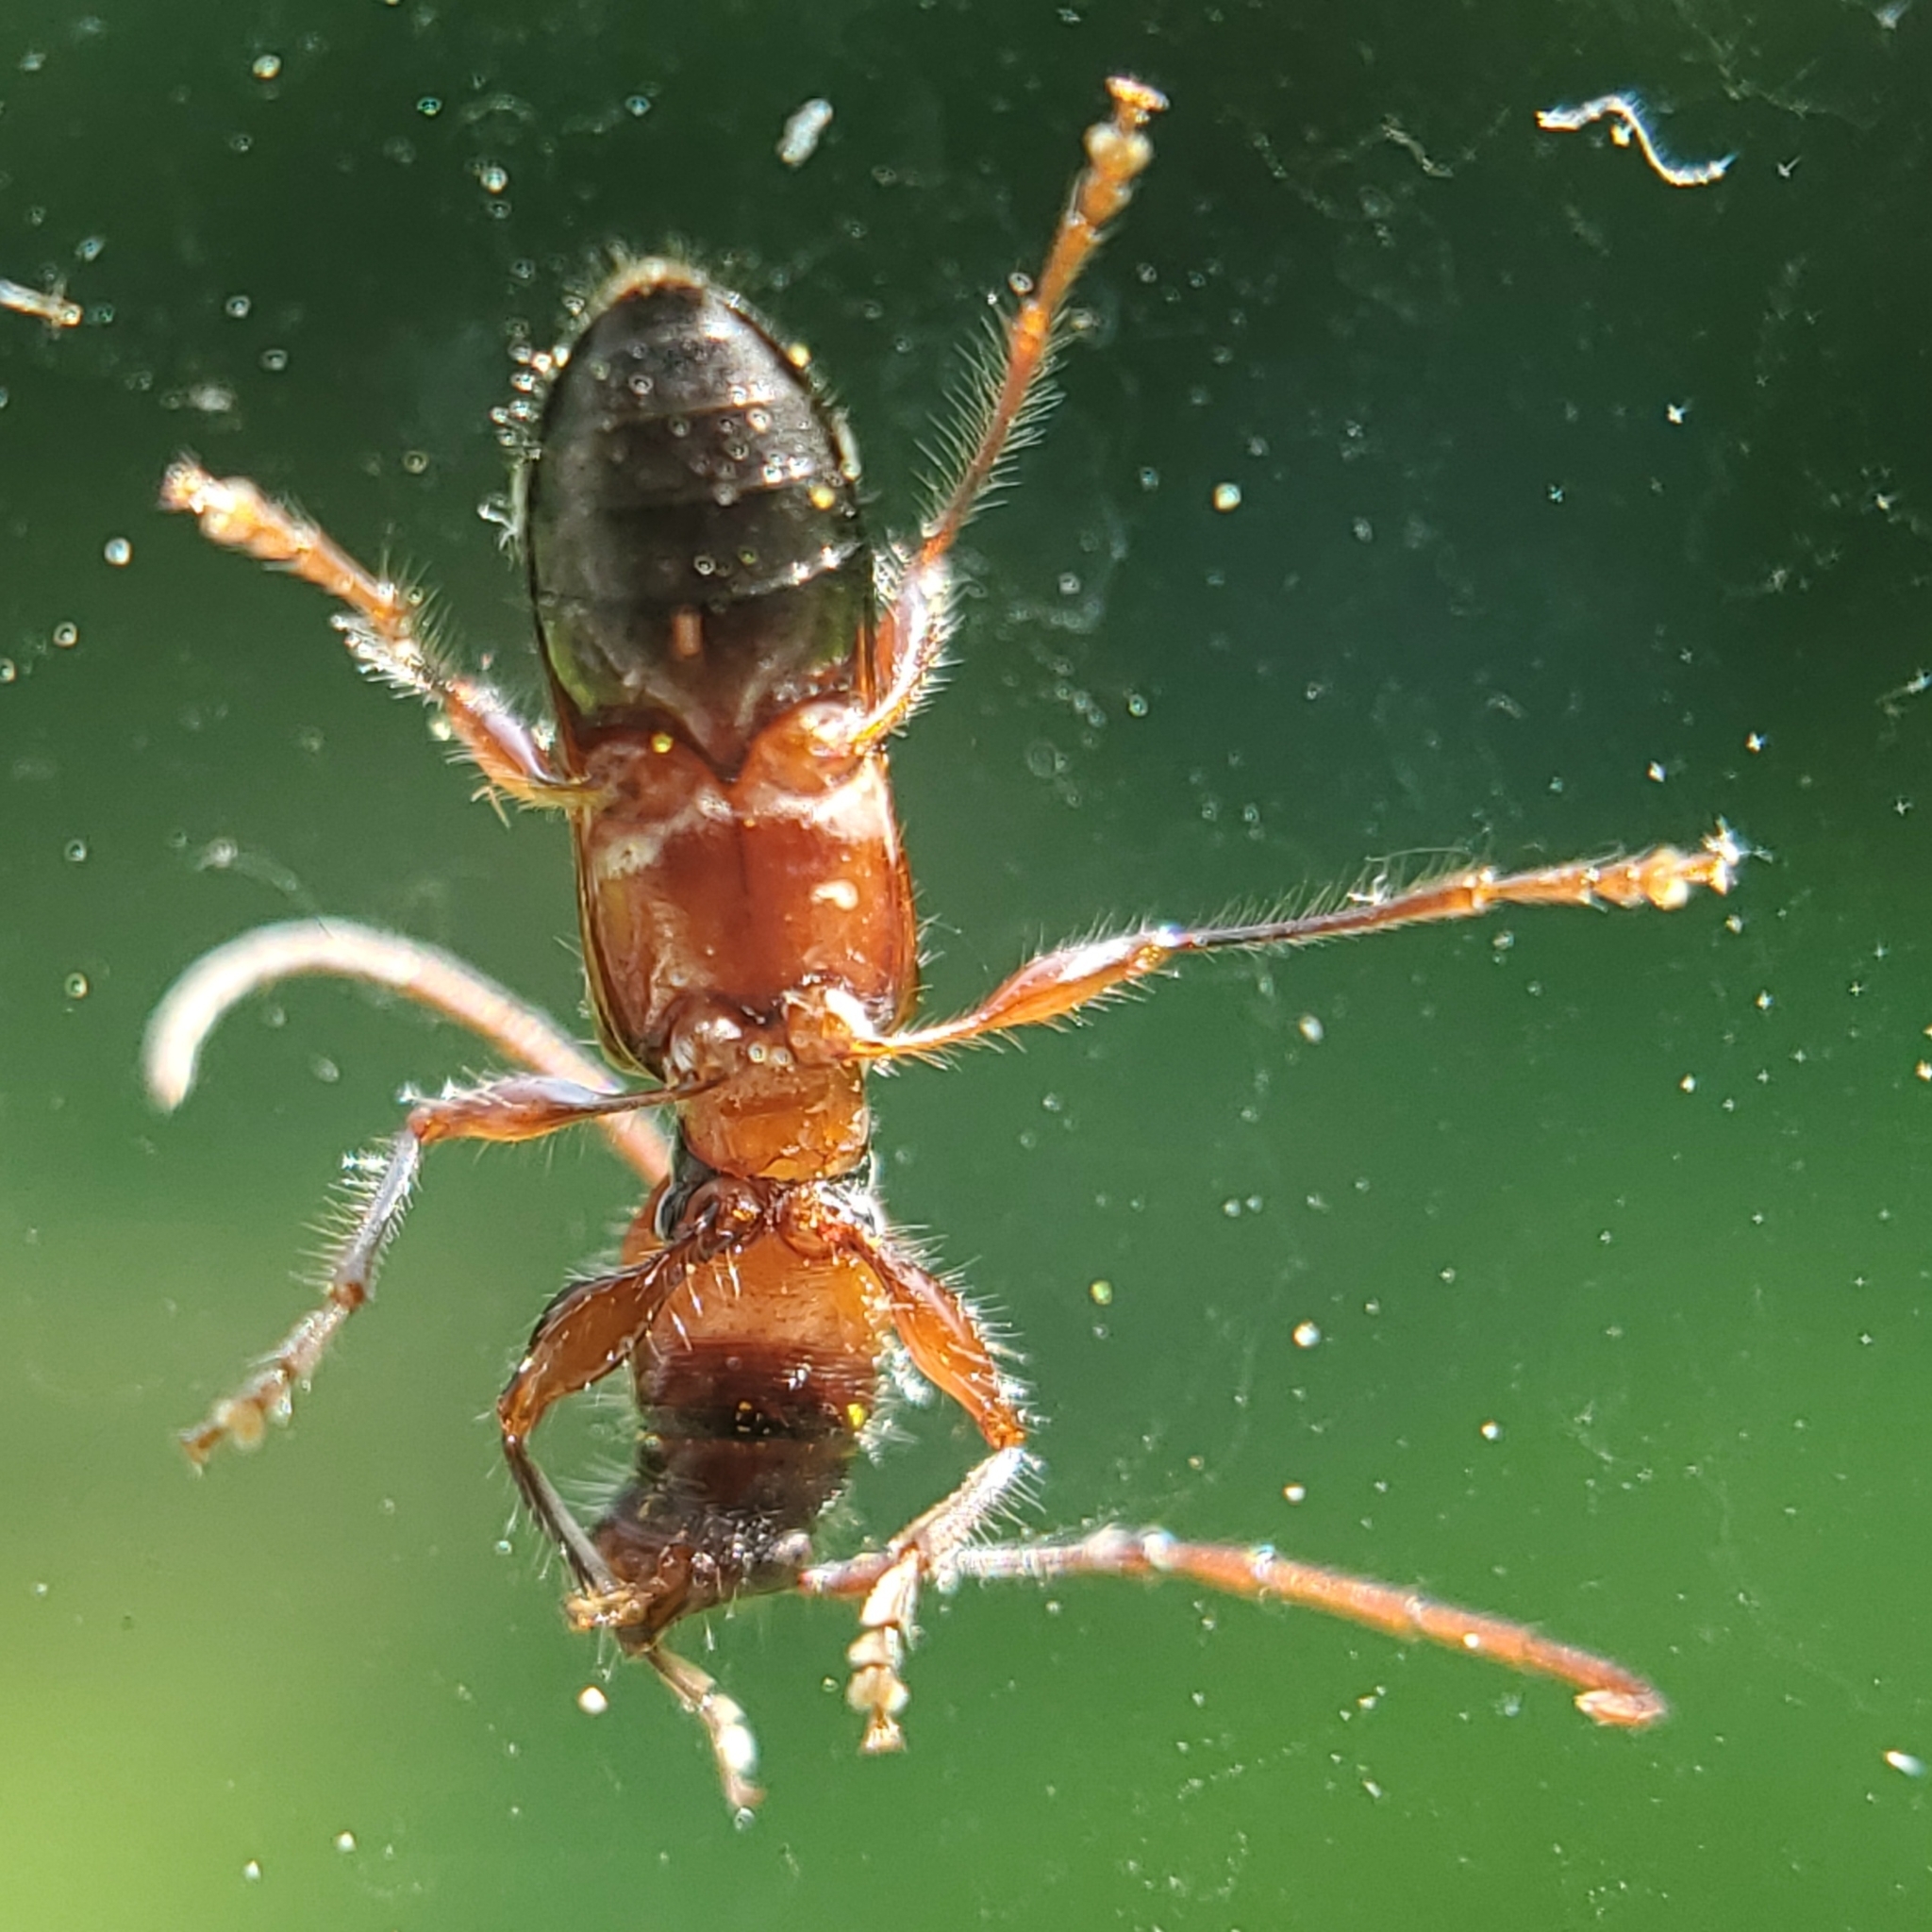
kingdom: Animalia
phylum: Arthropoda
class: Insecta
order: Coleoptera
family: Cerambycidae
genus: Euderces
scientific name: Euderces pini
